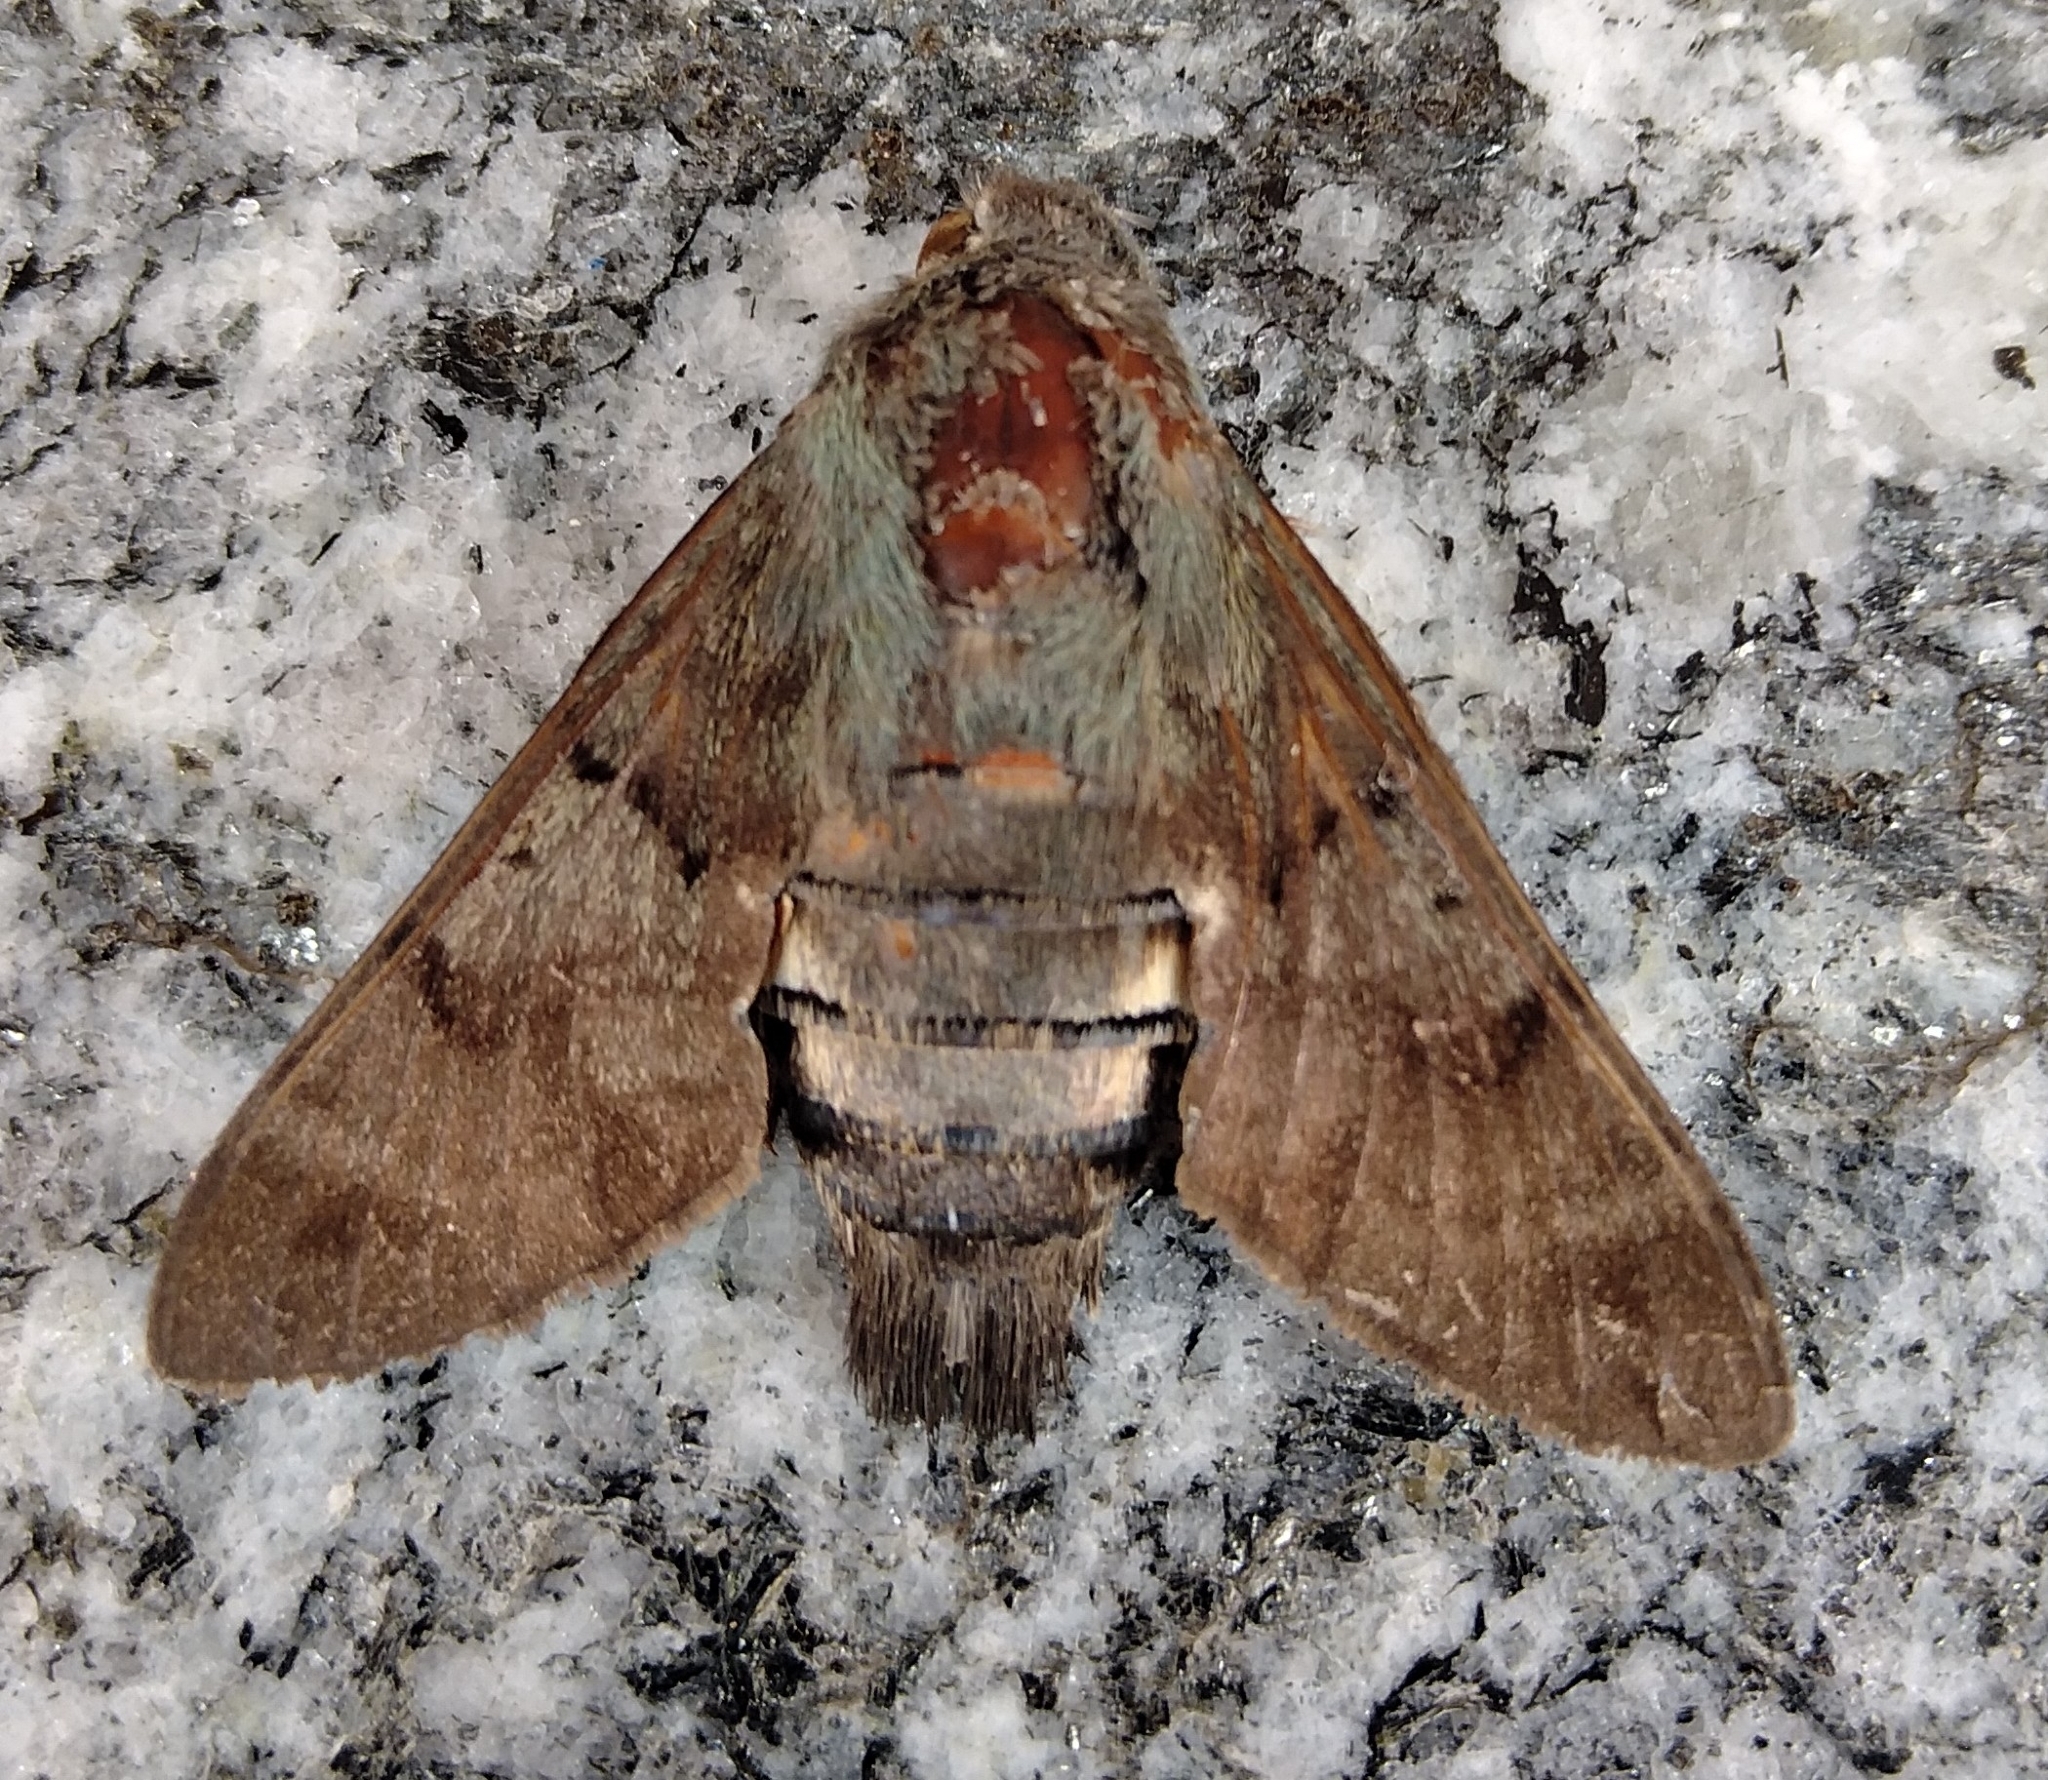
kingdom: Animalia
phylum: Arthropoda
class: Insecta
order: Lepidoptera
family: Sphingidae
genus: Macroglossum
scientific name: Macroglossum stellatarum
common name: Humming-bird hawk-moth
